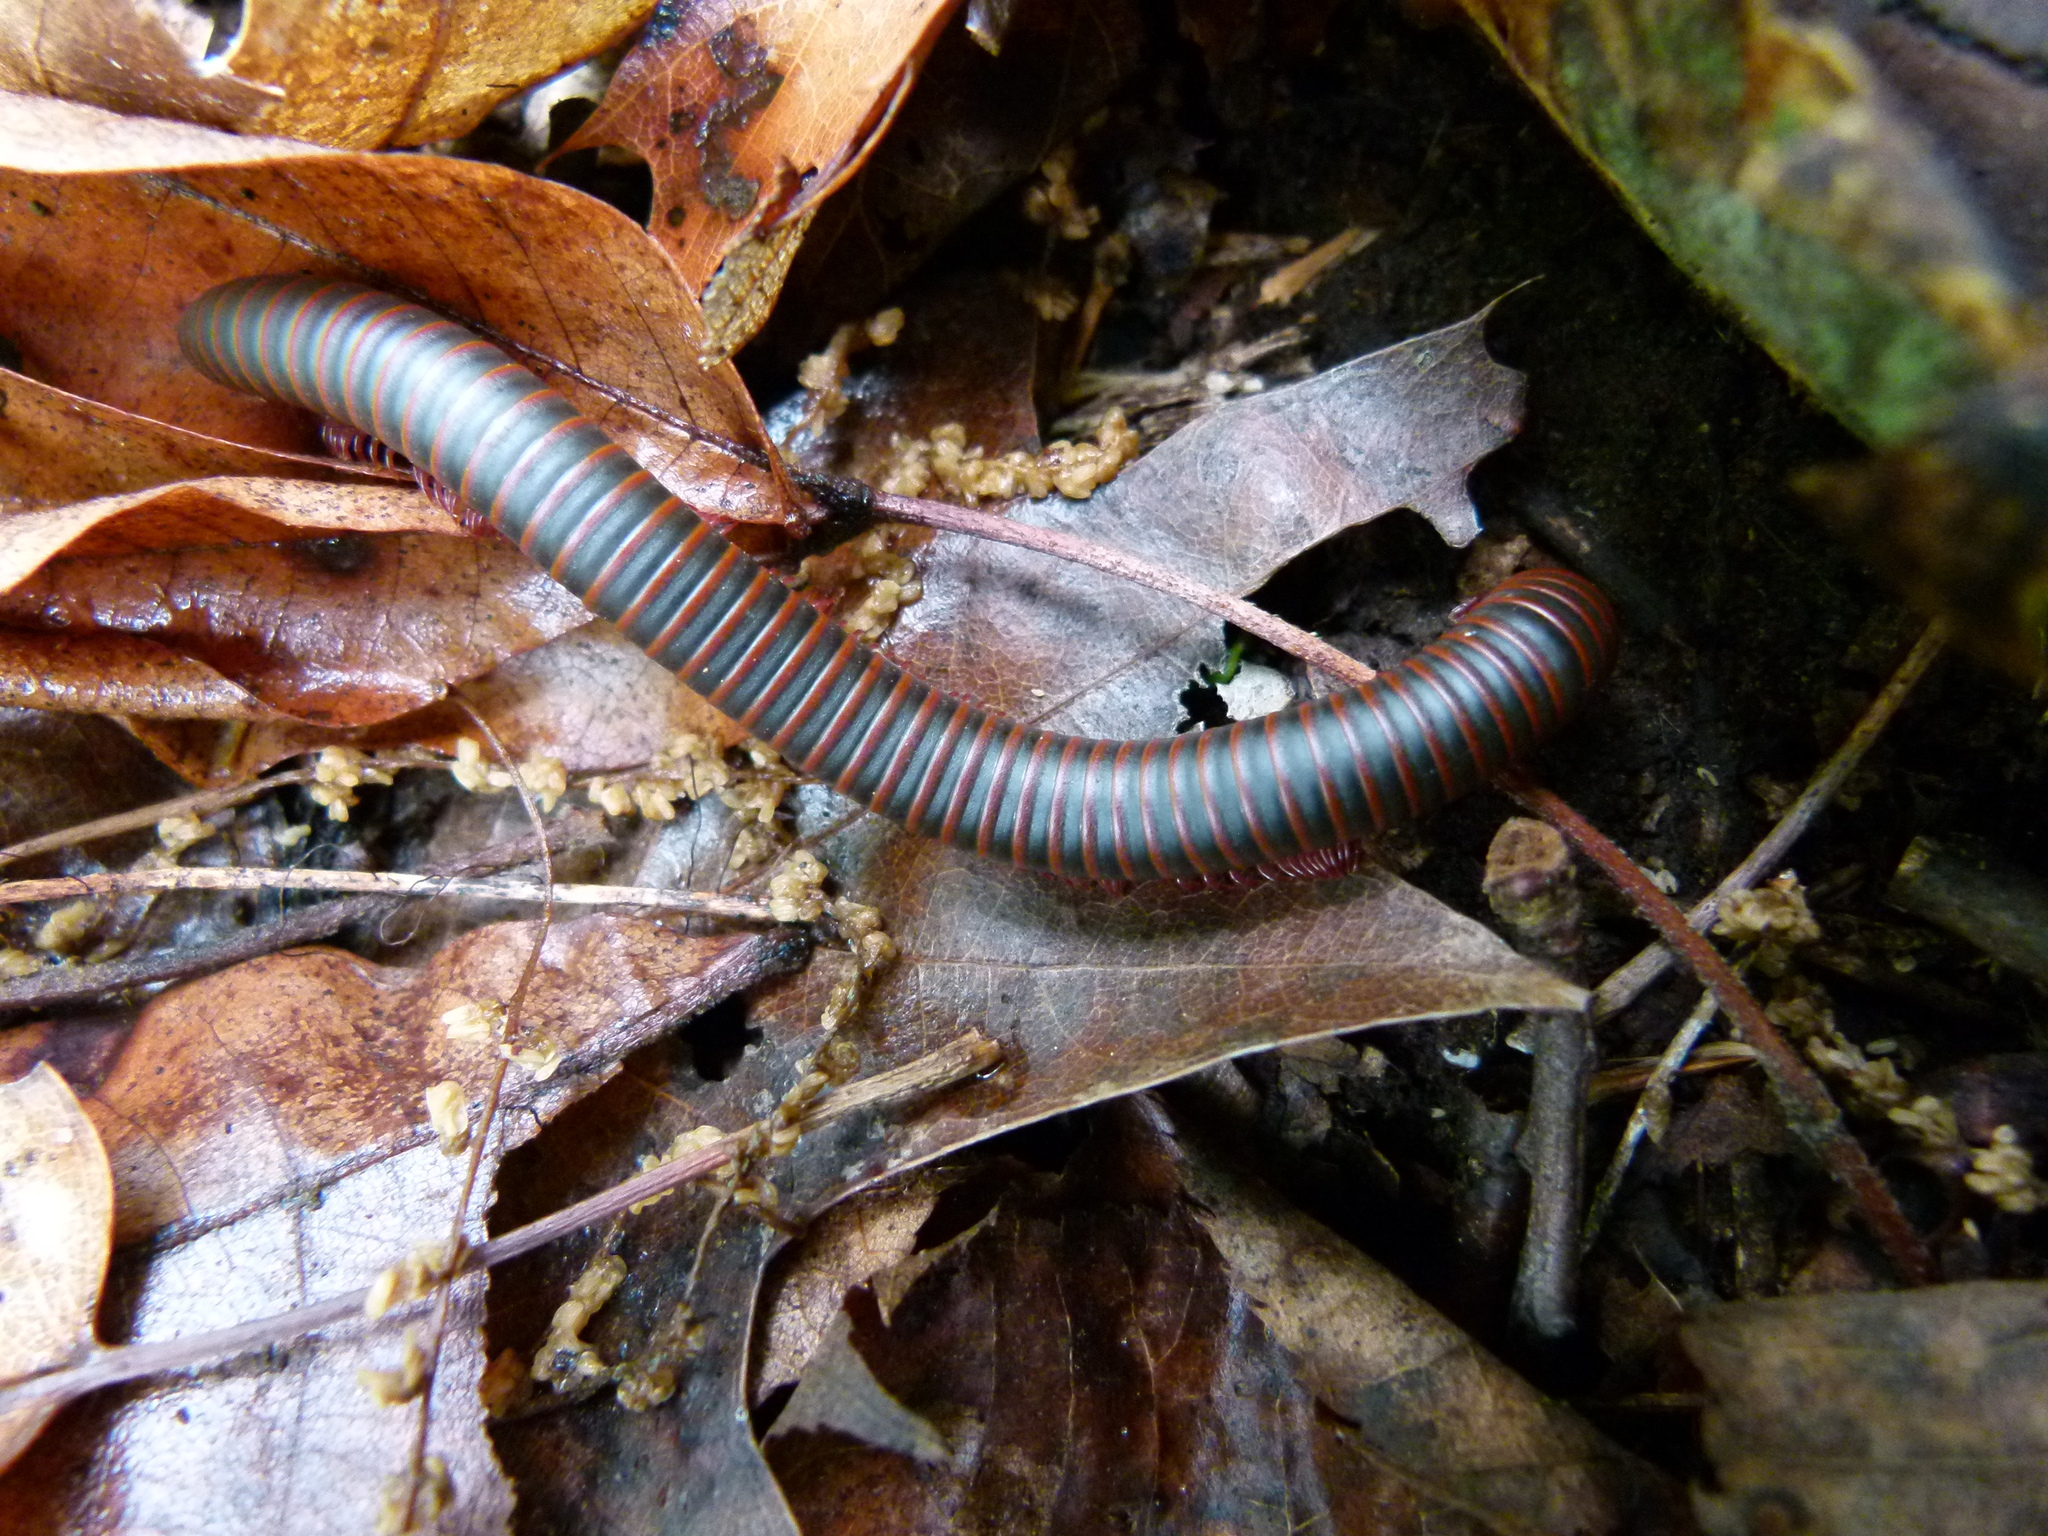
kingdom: Animalia
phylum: Arthropoda
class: Diplopoda
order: Spirobolida
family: Spirobolidae
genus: Narceus
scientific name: Narceus
